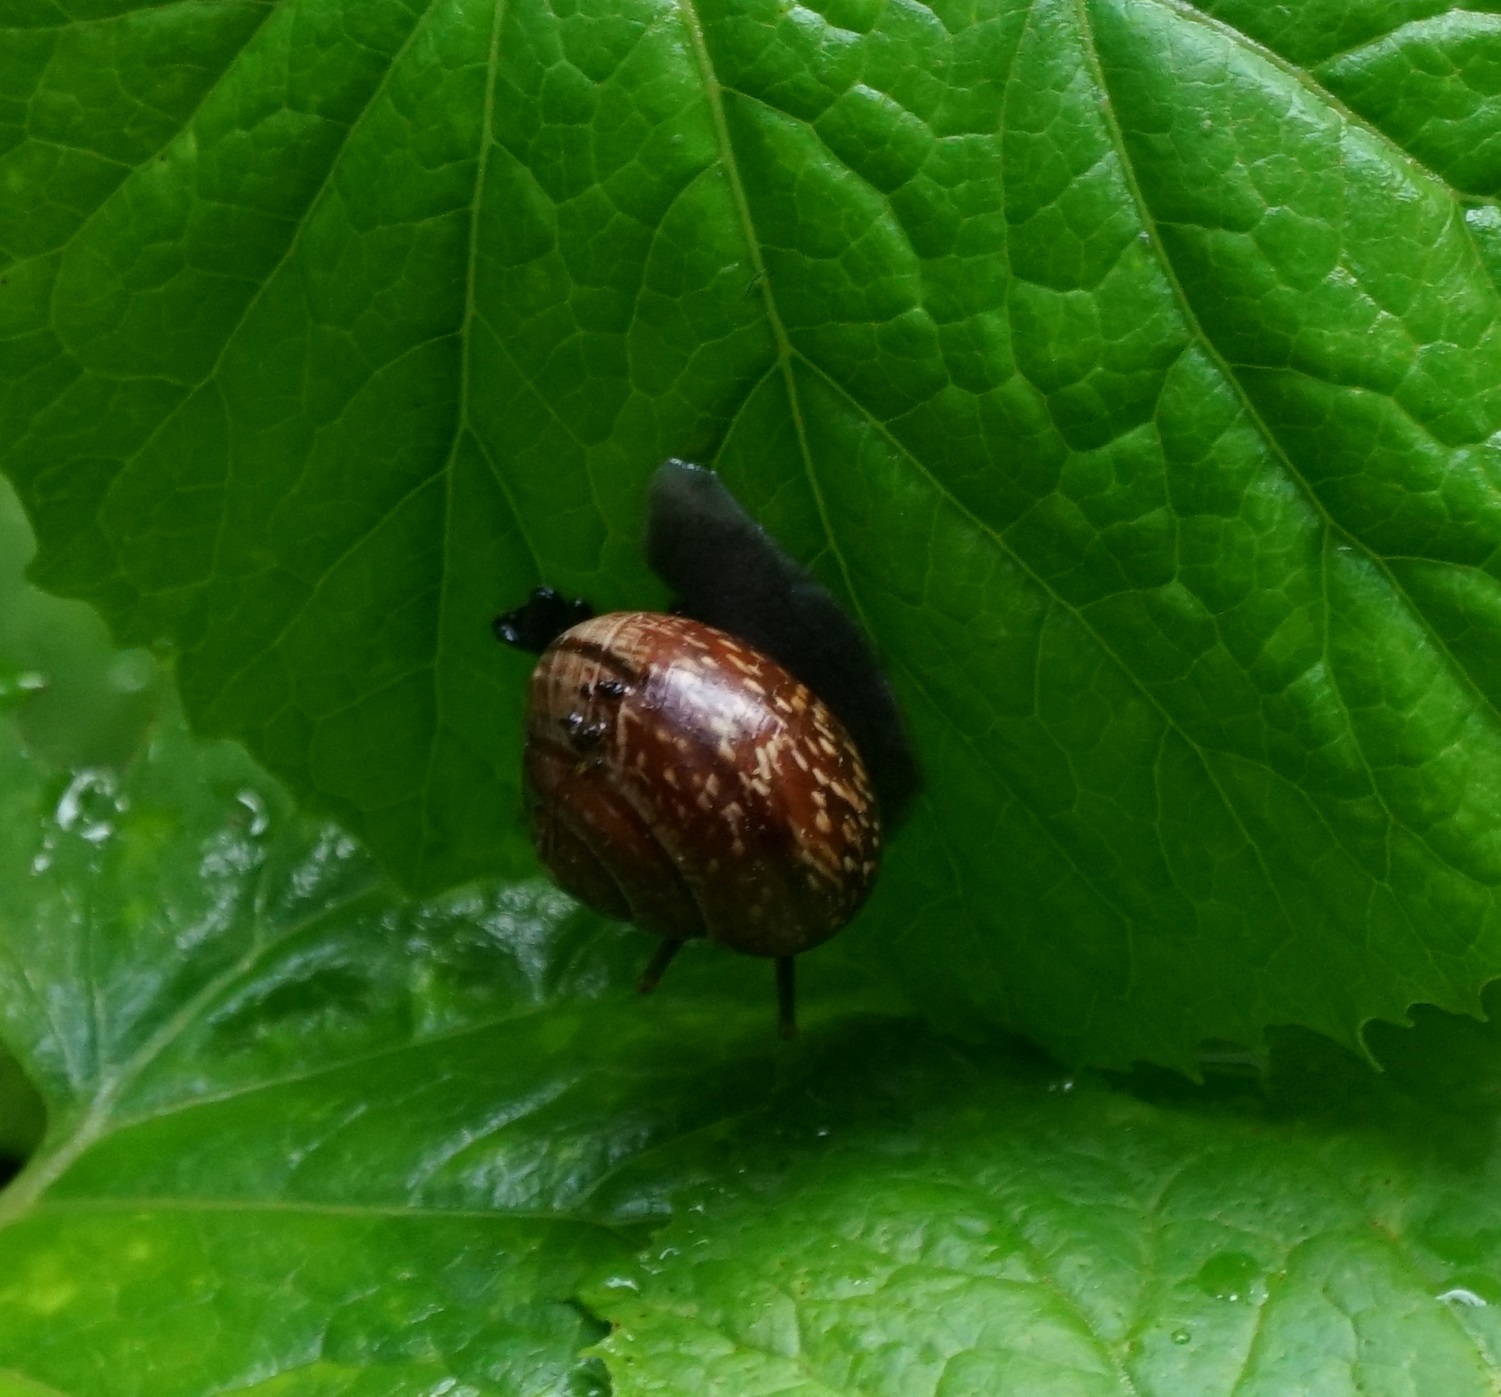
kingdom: Animalia
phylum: Mollusca
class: Gastropoda
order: Stylommatophora
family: Helicidae
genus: Arianta
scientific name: Arianta arbustorum
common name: Copse snail
